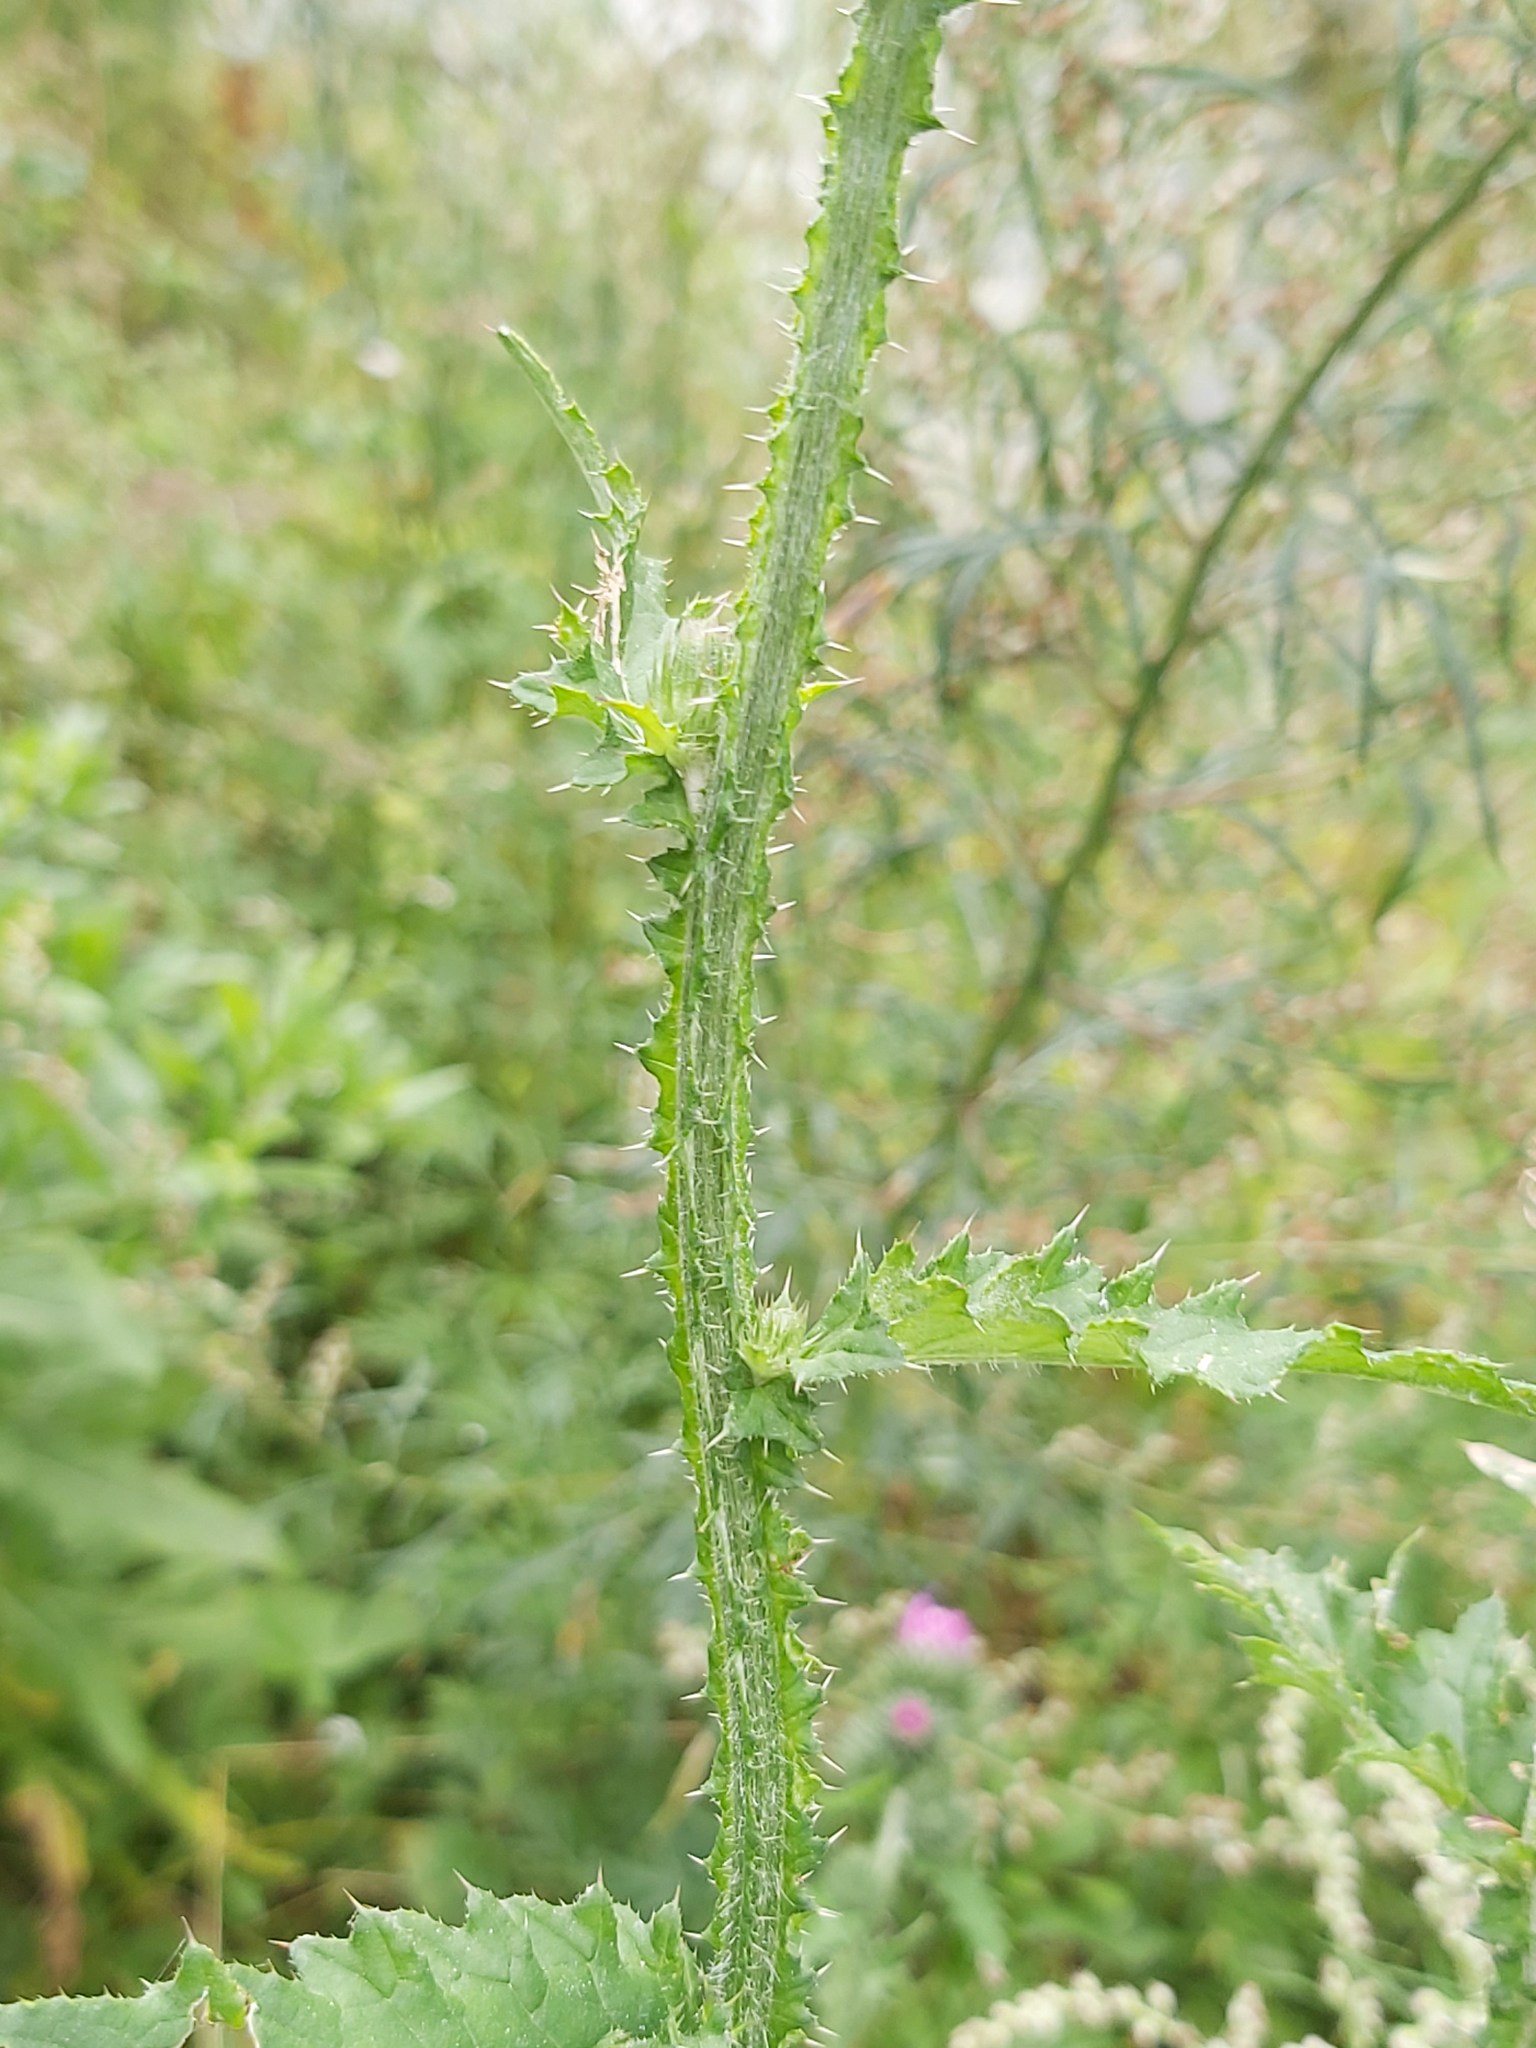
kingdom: Plantae
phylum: Tracheophyta
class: Magnoliopsida
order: Asterales
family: Asteraceae
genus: Carduus
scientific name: Carduus crispus
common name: Welted thistle
